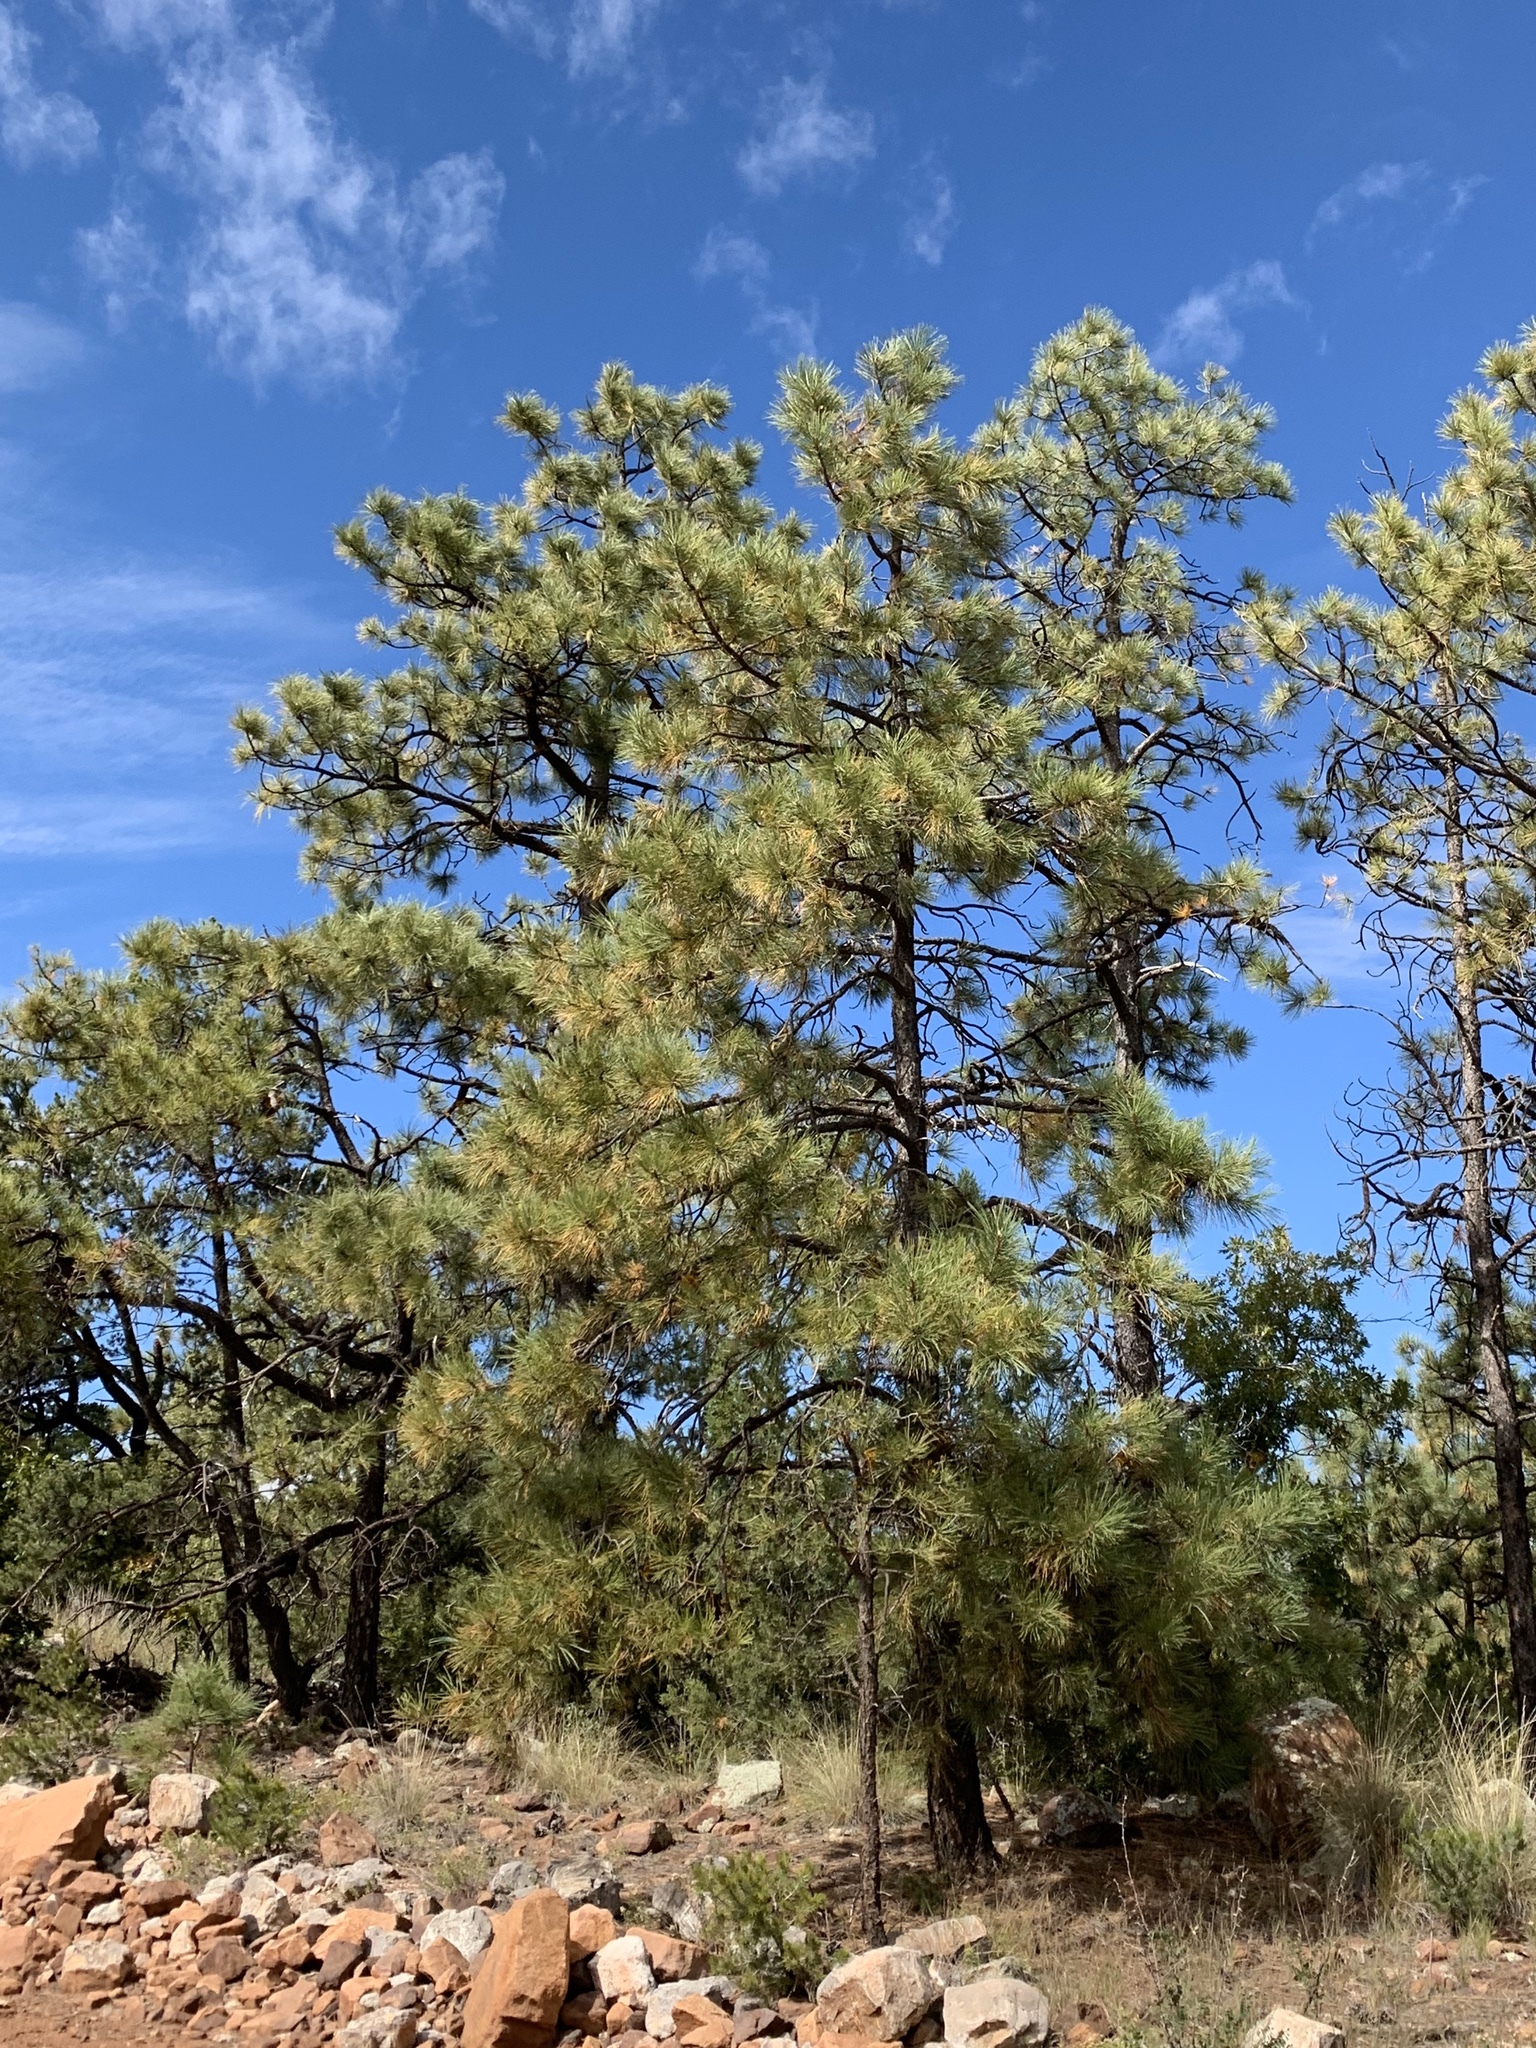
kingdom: Plantae
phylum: Tracheophyta
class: Pinopsida
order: Pinales
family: Pinaceae
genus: Pinus
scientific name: Pinus ponderosa
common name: Western yellow-pine
